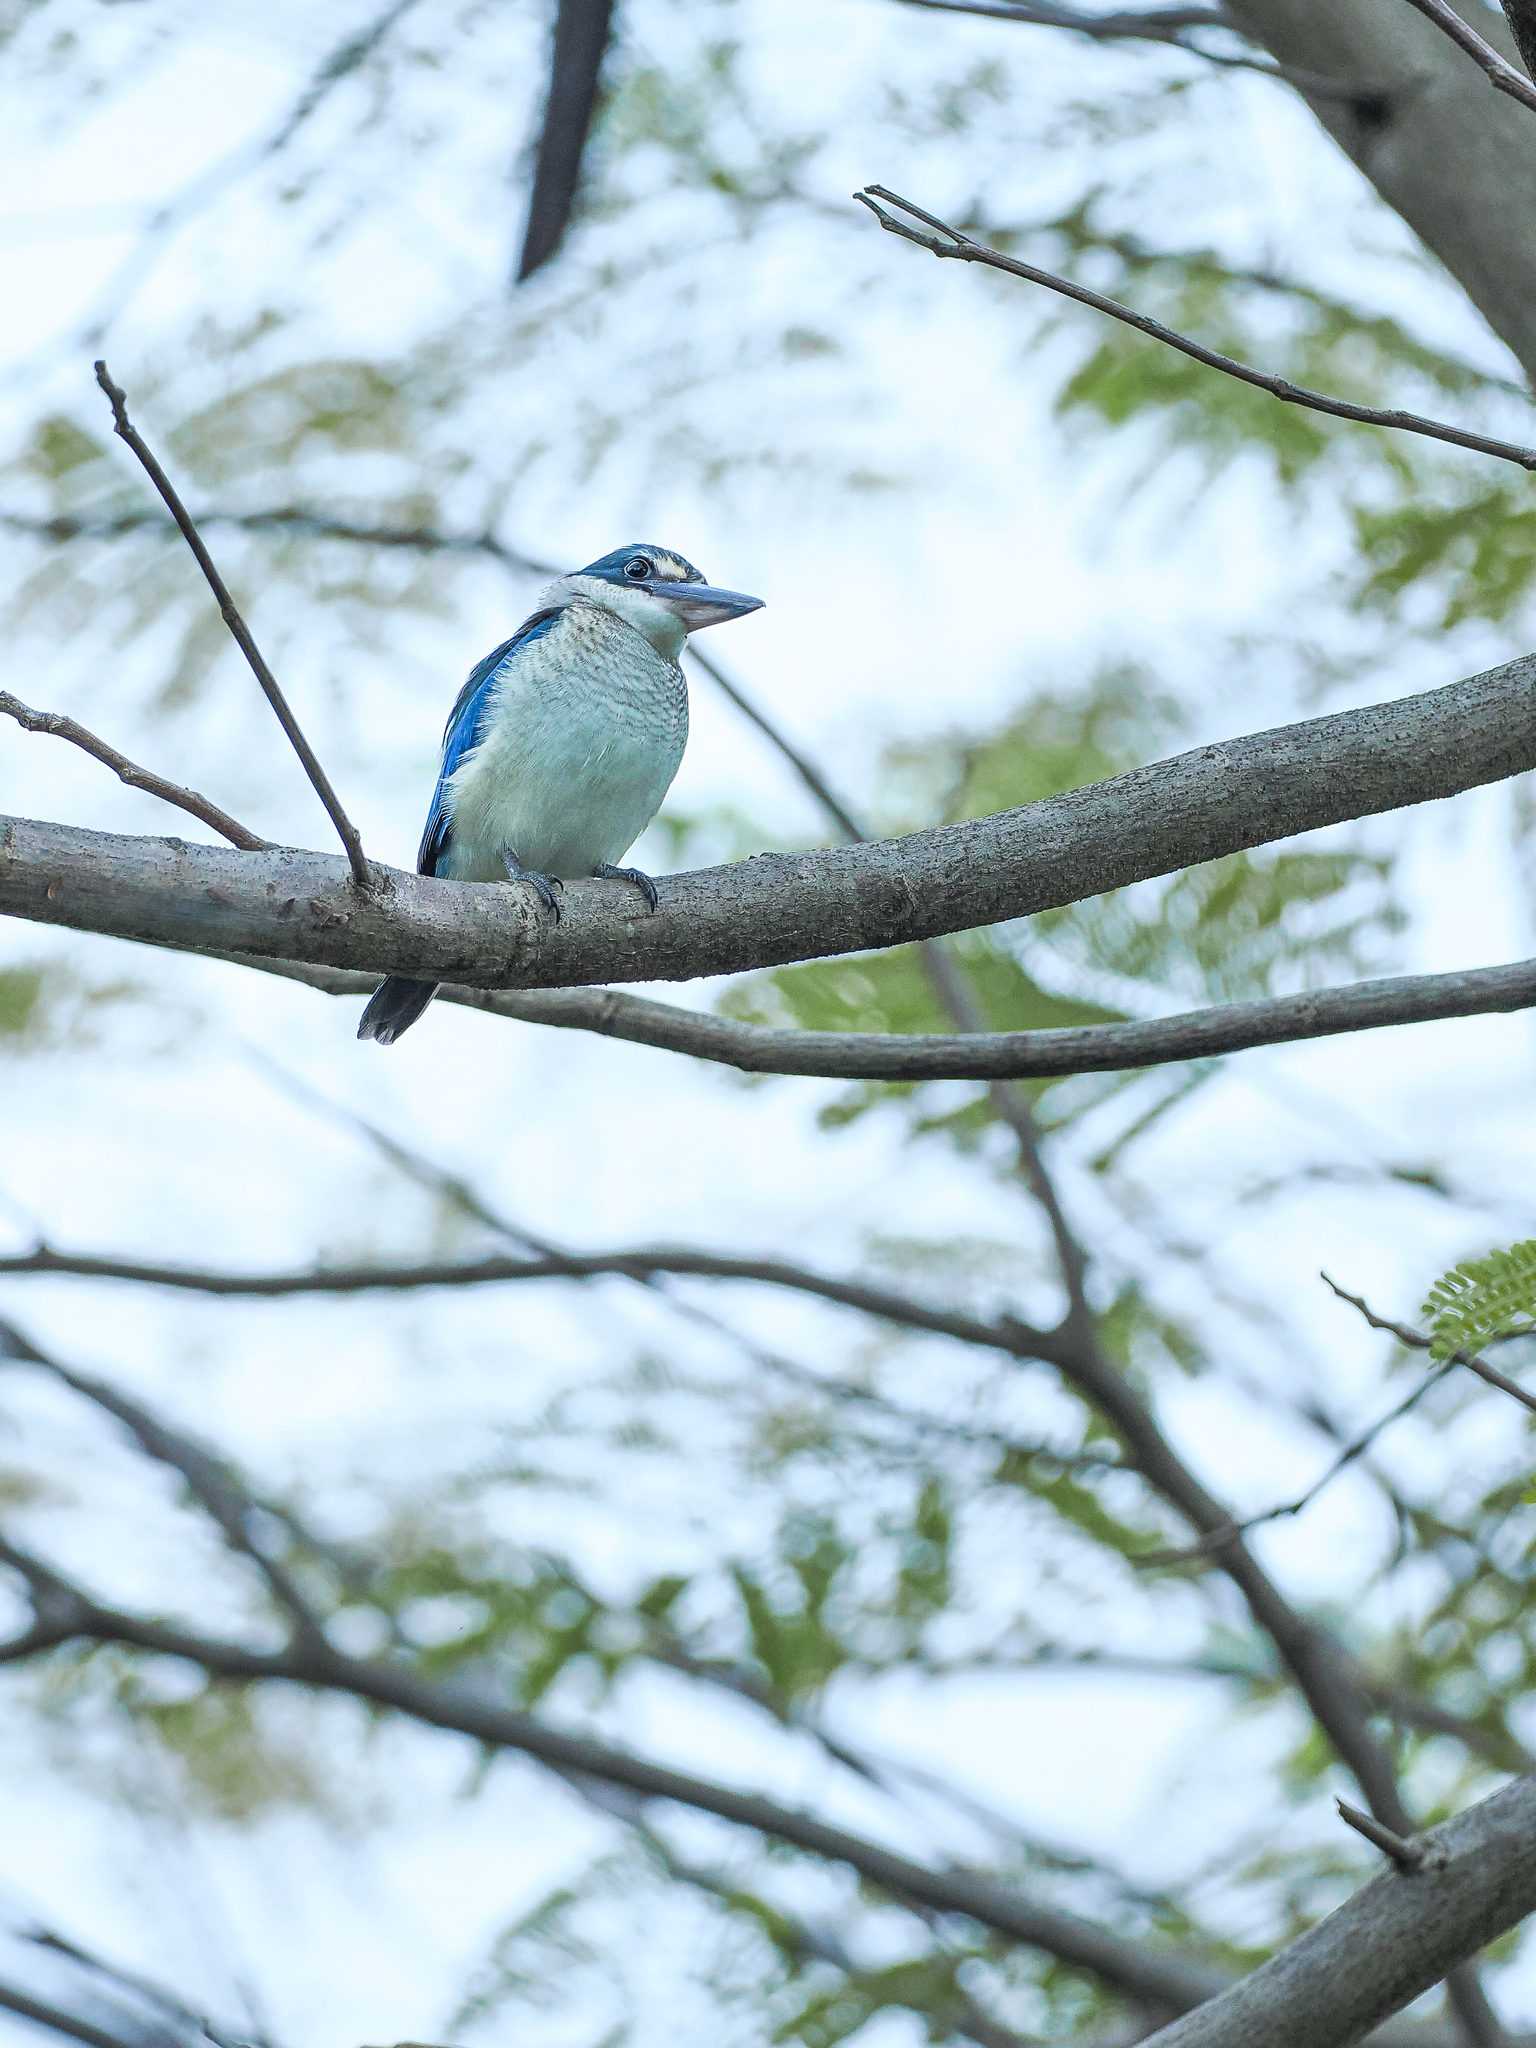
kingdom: Animalia
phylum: Chordata
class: Aves
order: Coraciiformes
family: Alcedinidae
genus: Todiramphus
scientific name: Todiramphus chloris
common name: Collared kingfisher
